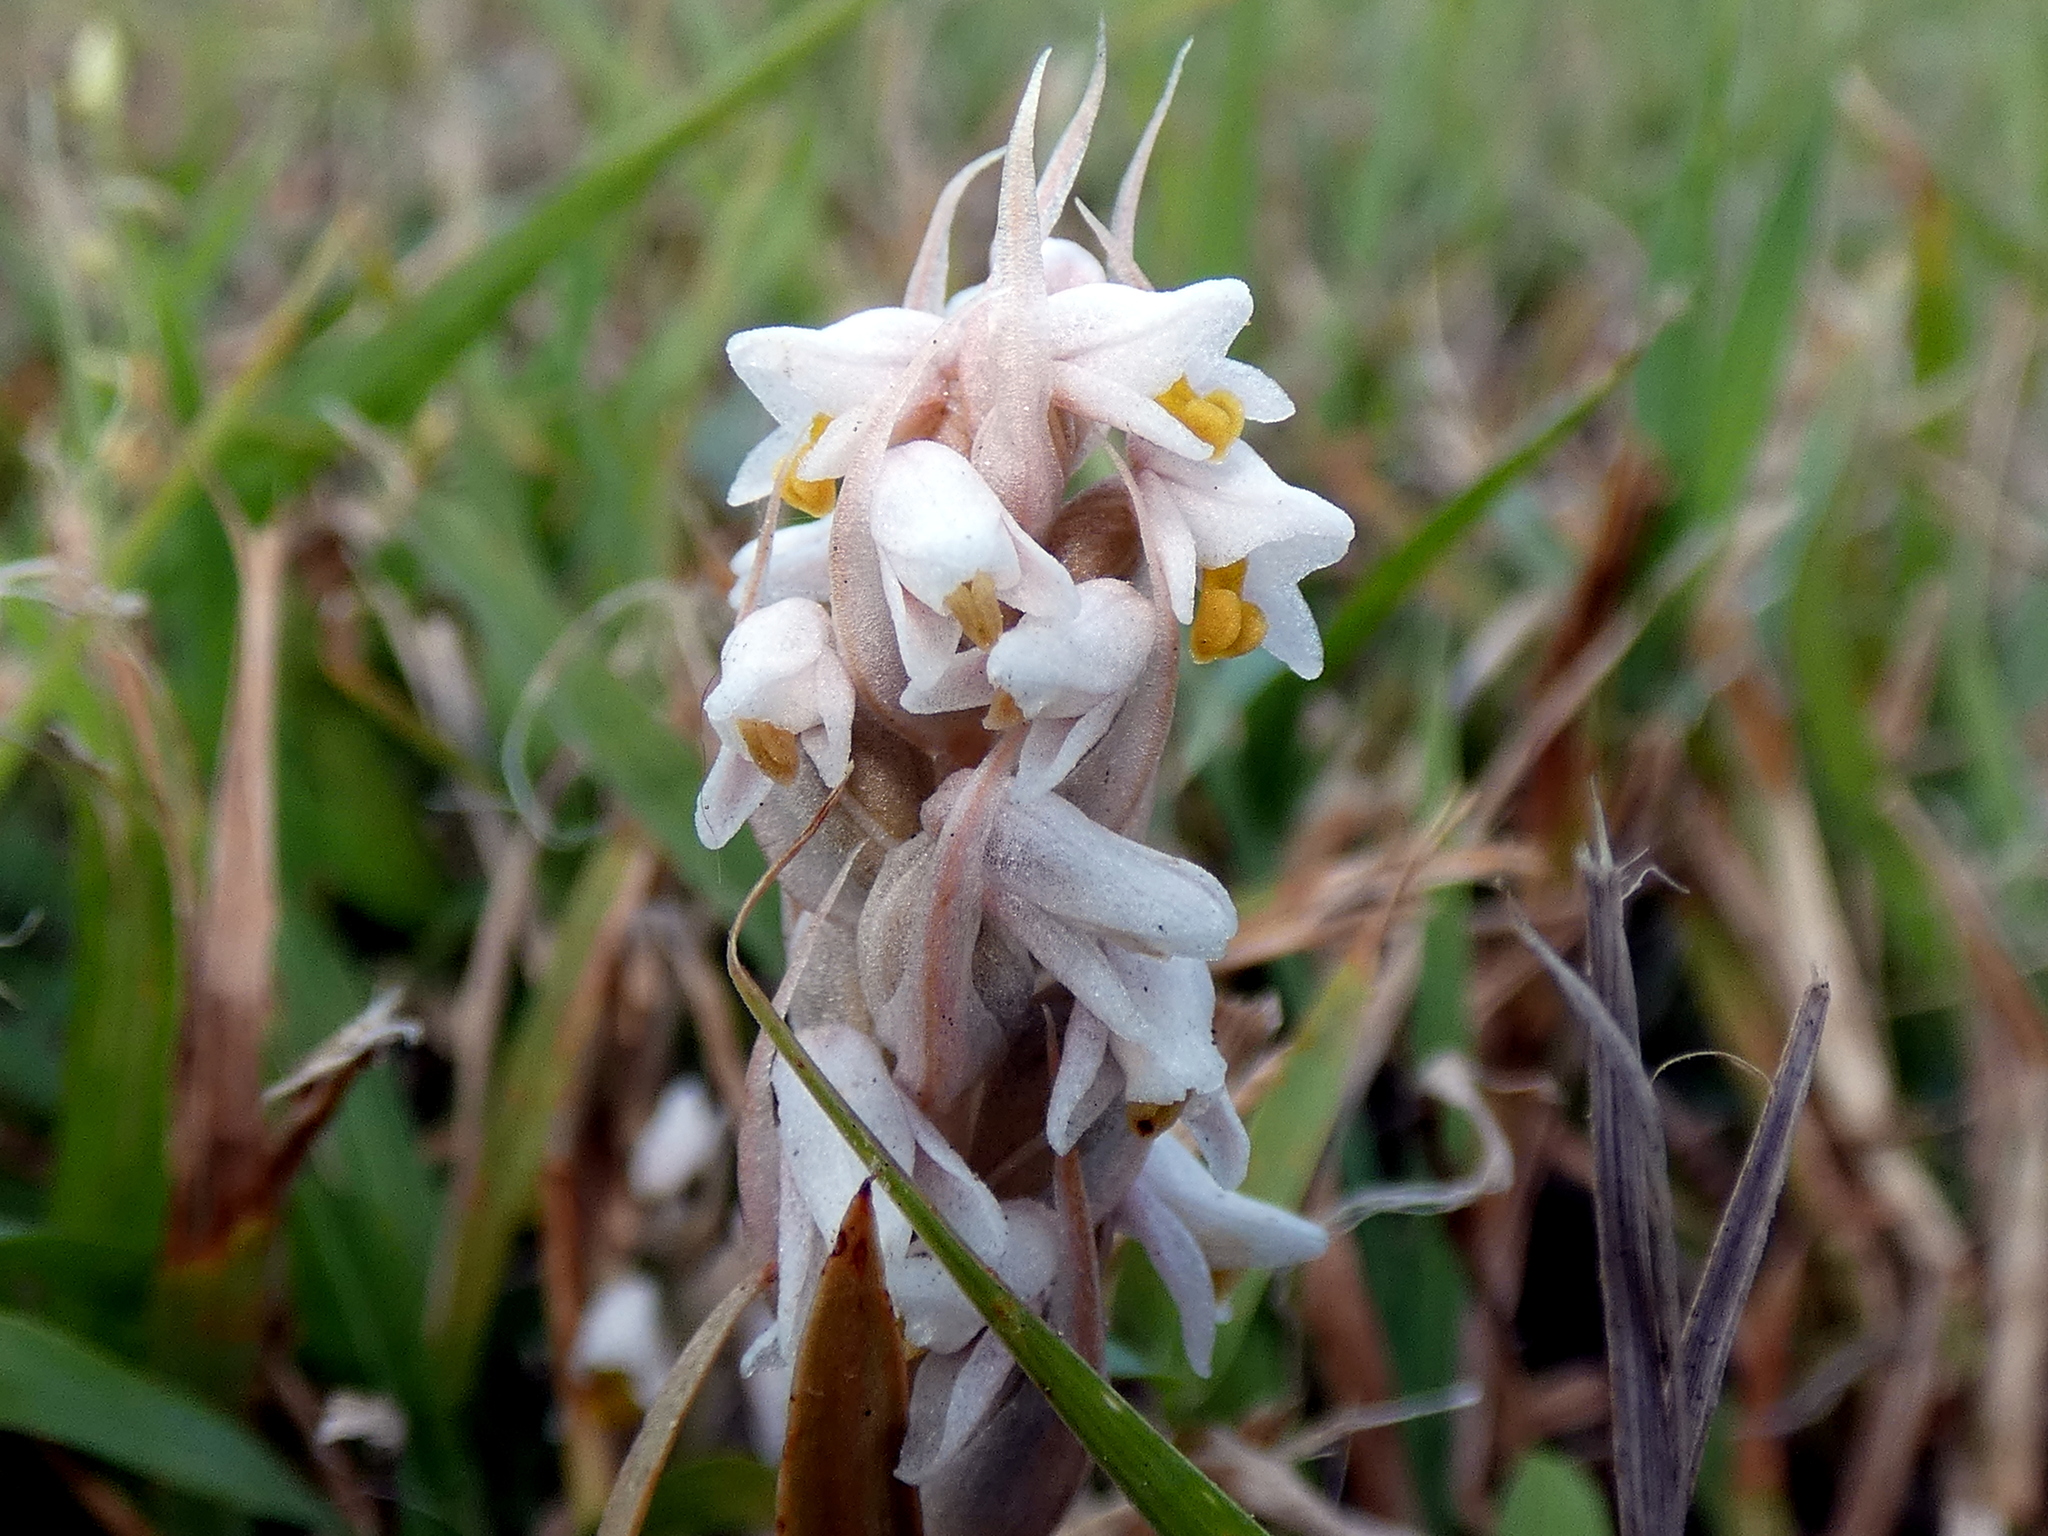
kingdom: Plantae
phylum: Tracheophyta
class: Liliopsida
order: Asparagales
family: Orchidaceae
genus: Zeuxine
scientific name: Zeuxine strateumatica
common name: Soldier's orchid
